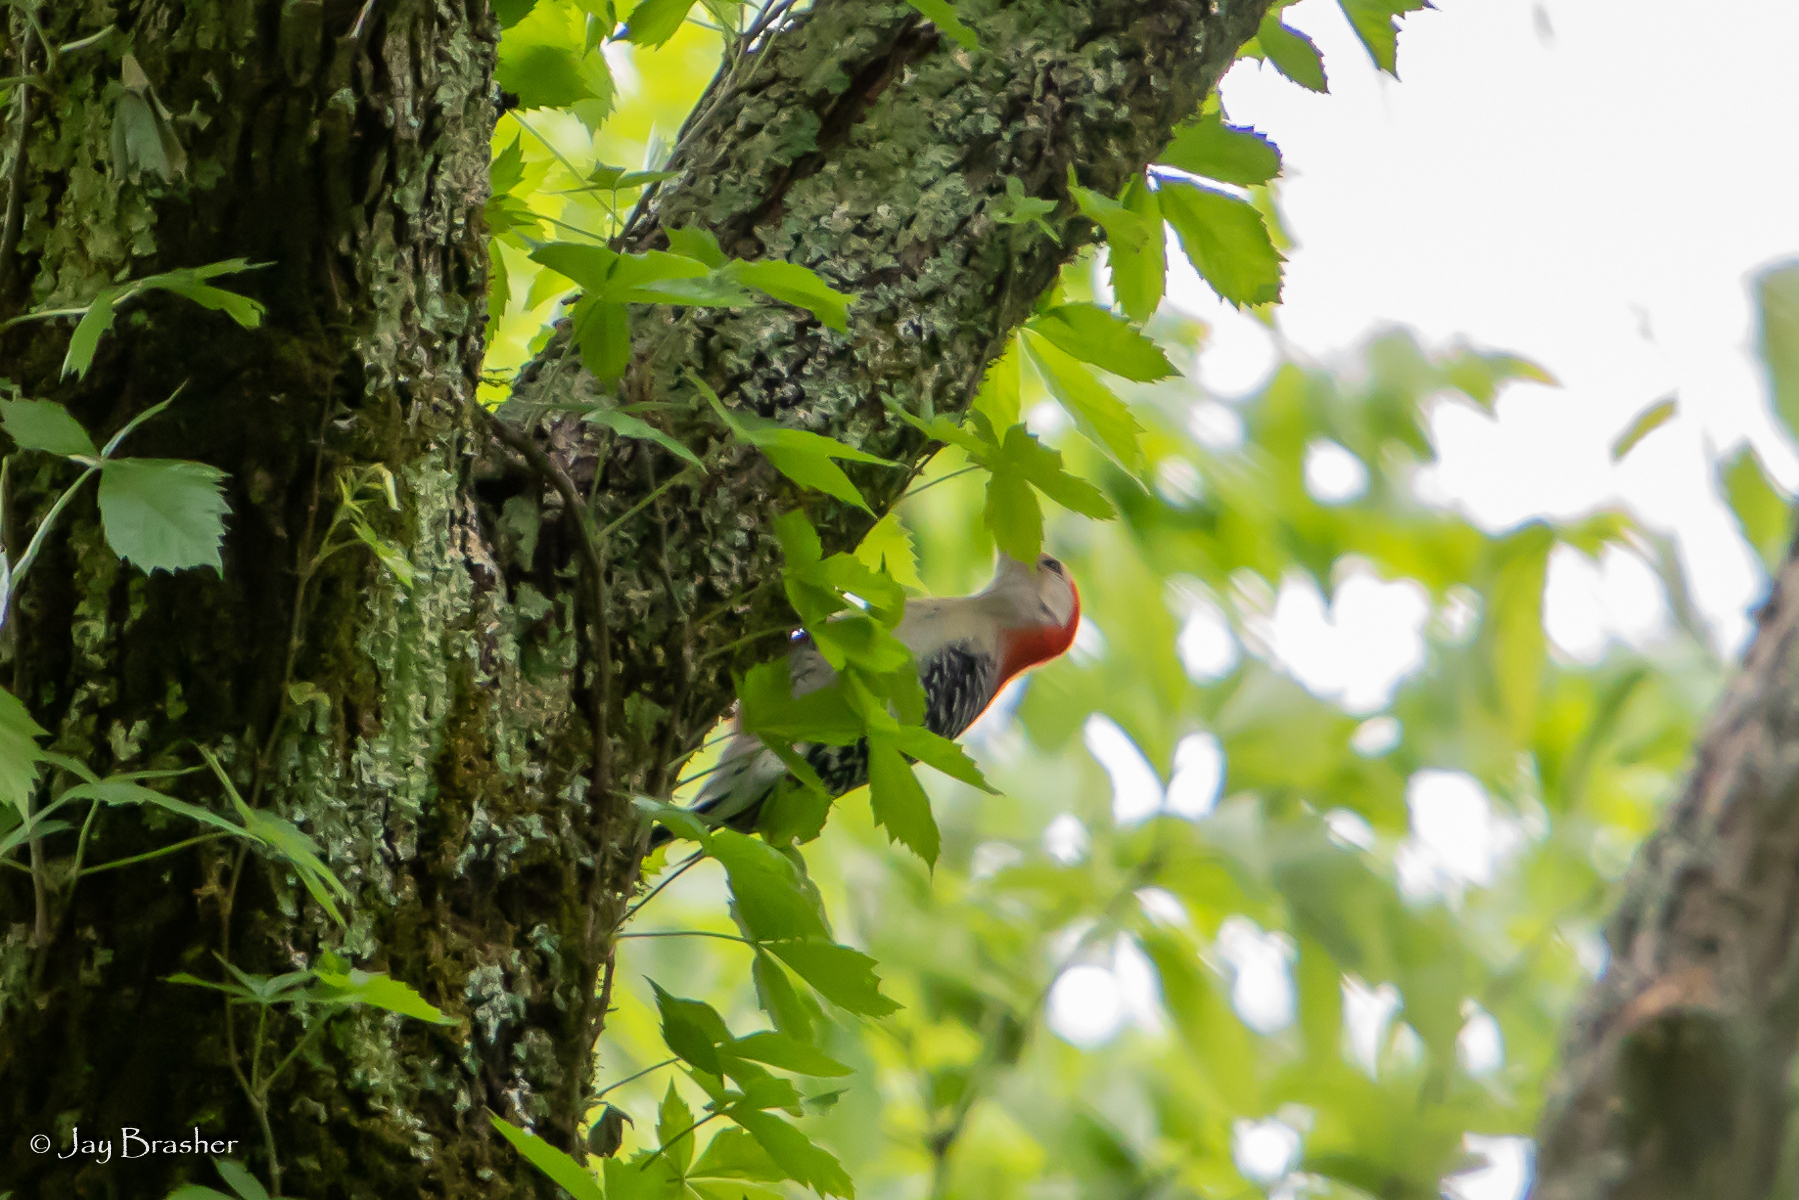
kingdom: Animalia
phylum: Chordata
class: Aves
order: Piciformes
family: Picidae
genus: Melanerpes
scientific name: Melanerpes carolinus
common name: Red-bellied woodpecker
